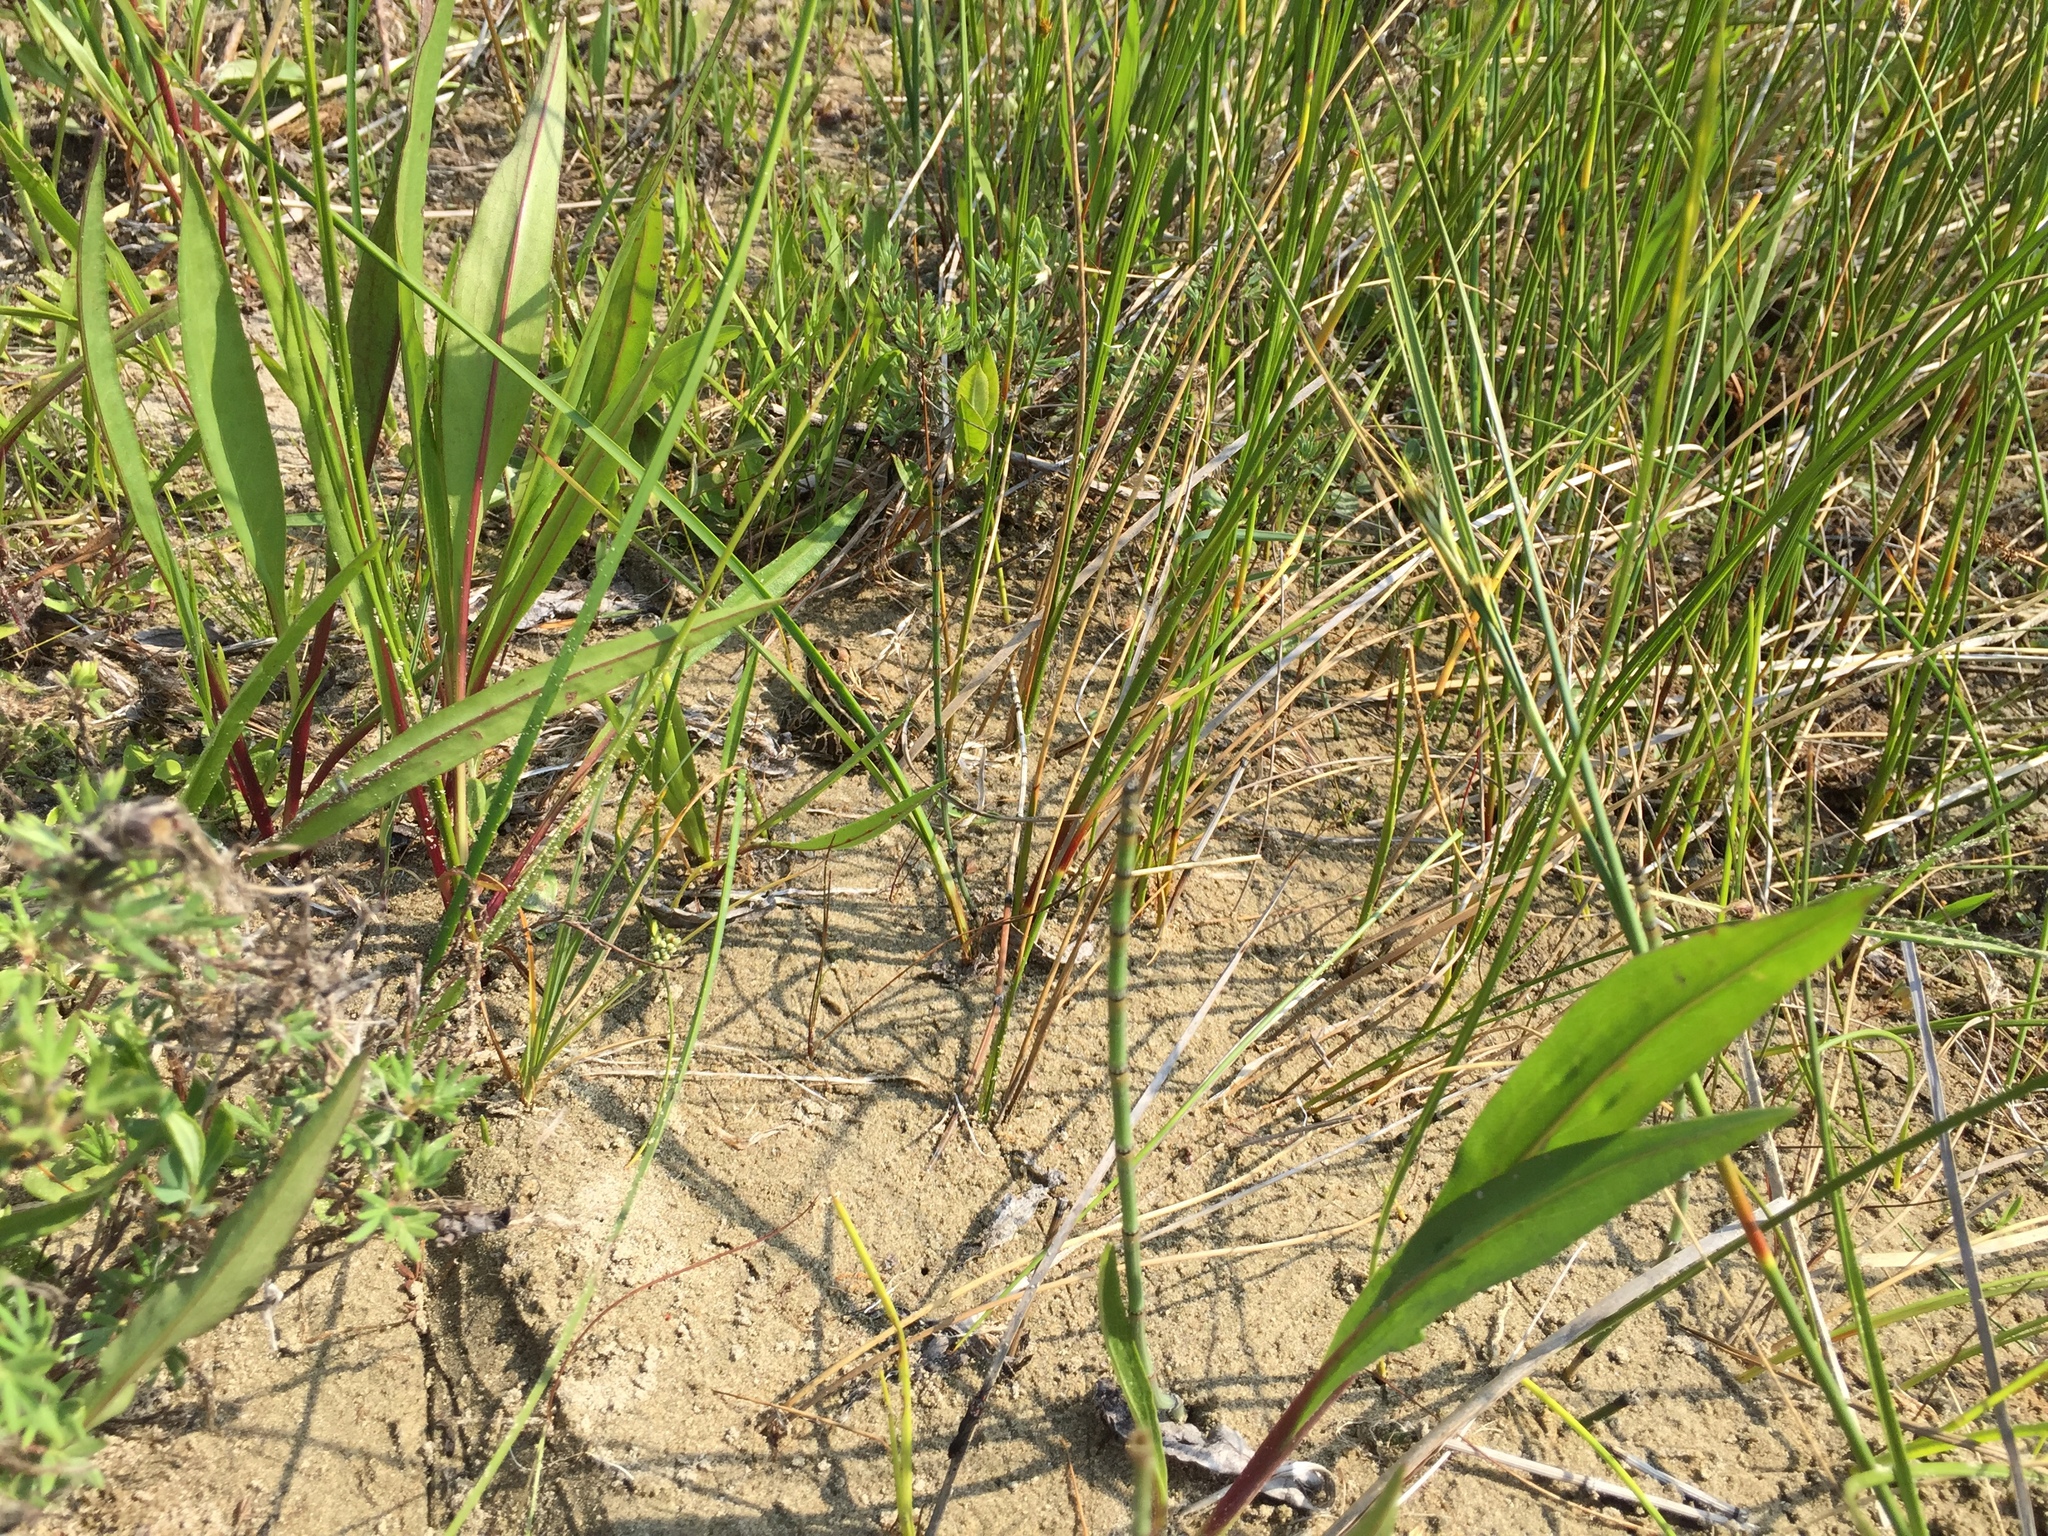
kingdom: Animalia
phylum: Chordata
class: Amphibia
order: Anura
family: Ranidae
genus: Lithobates
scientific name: Lithobates pipiens
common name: Northern leopard frog
